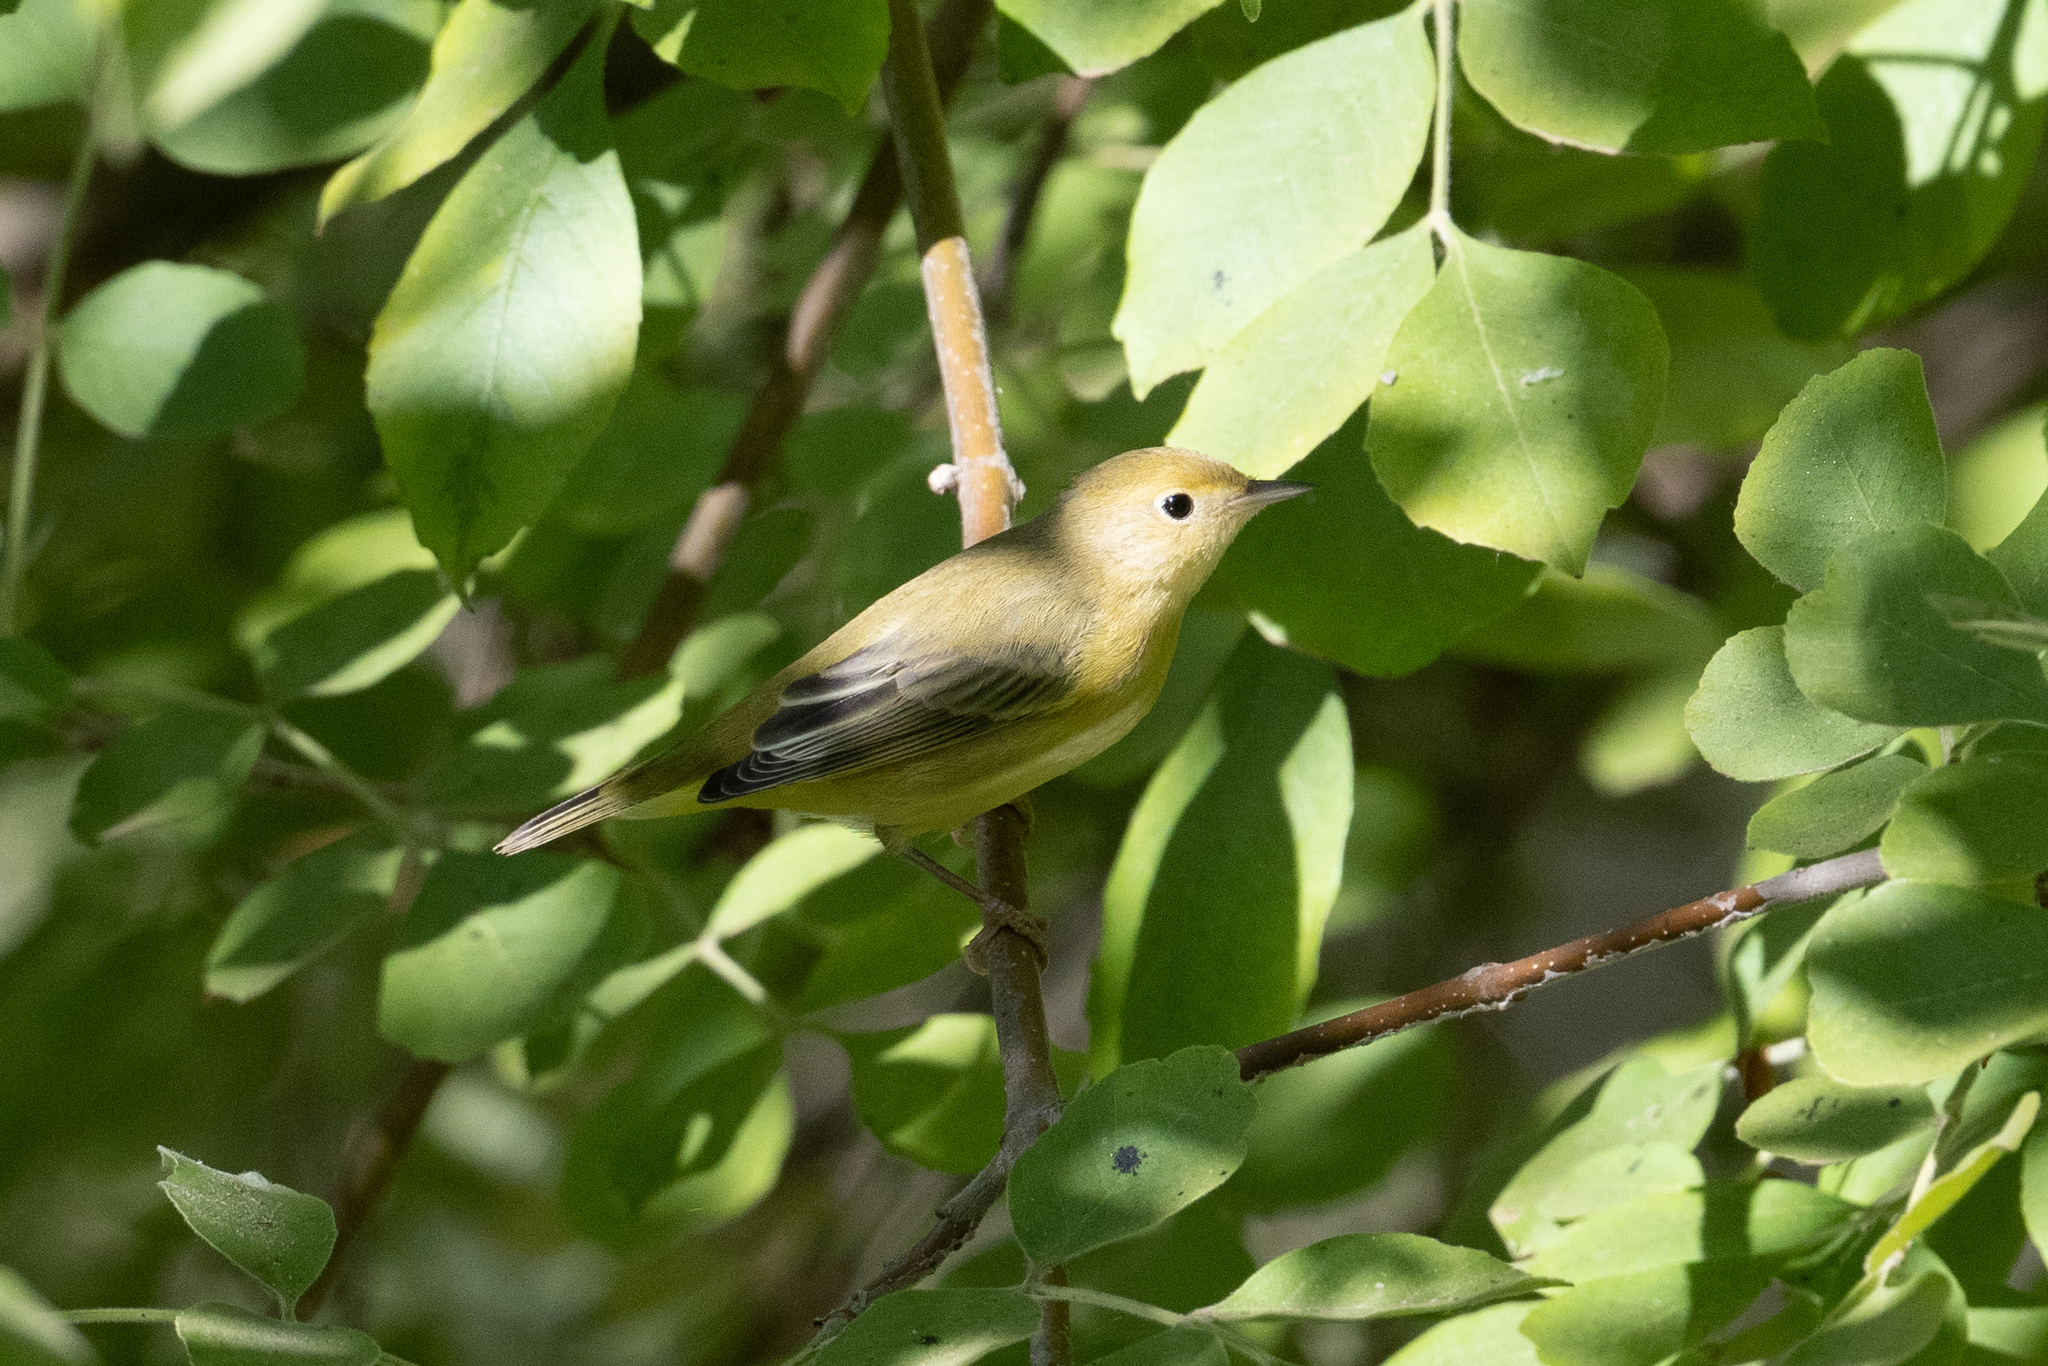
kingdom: Animalia
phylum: Chordata
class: Aves
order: Passeriformes
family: Parulidae
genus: Setophaga
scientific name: Setophaga petechia
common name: Yellow warbler
